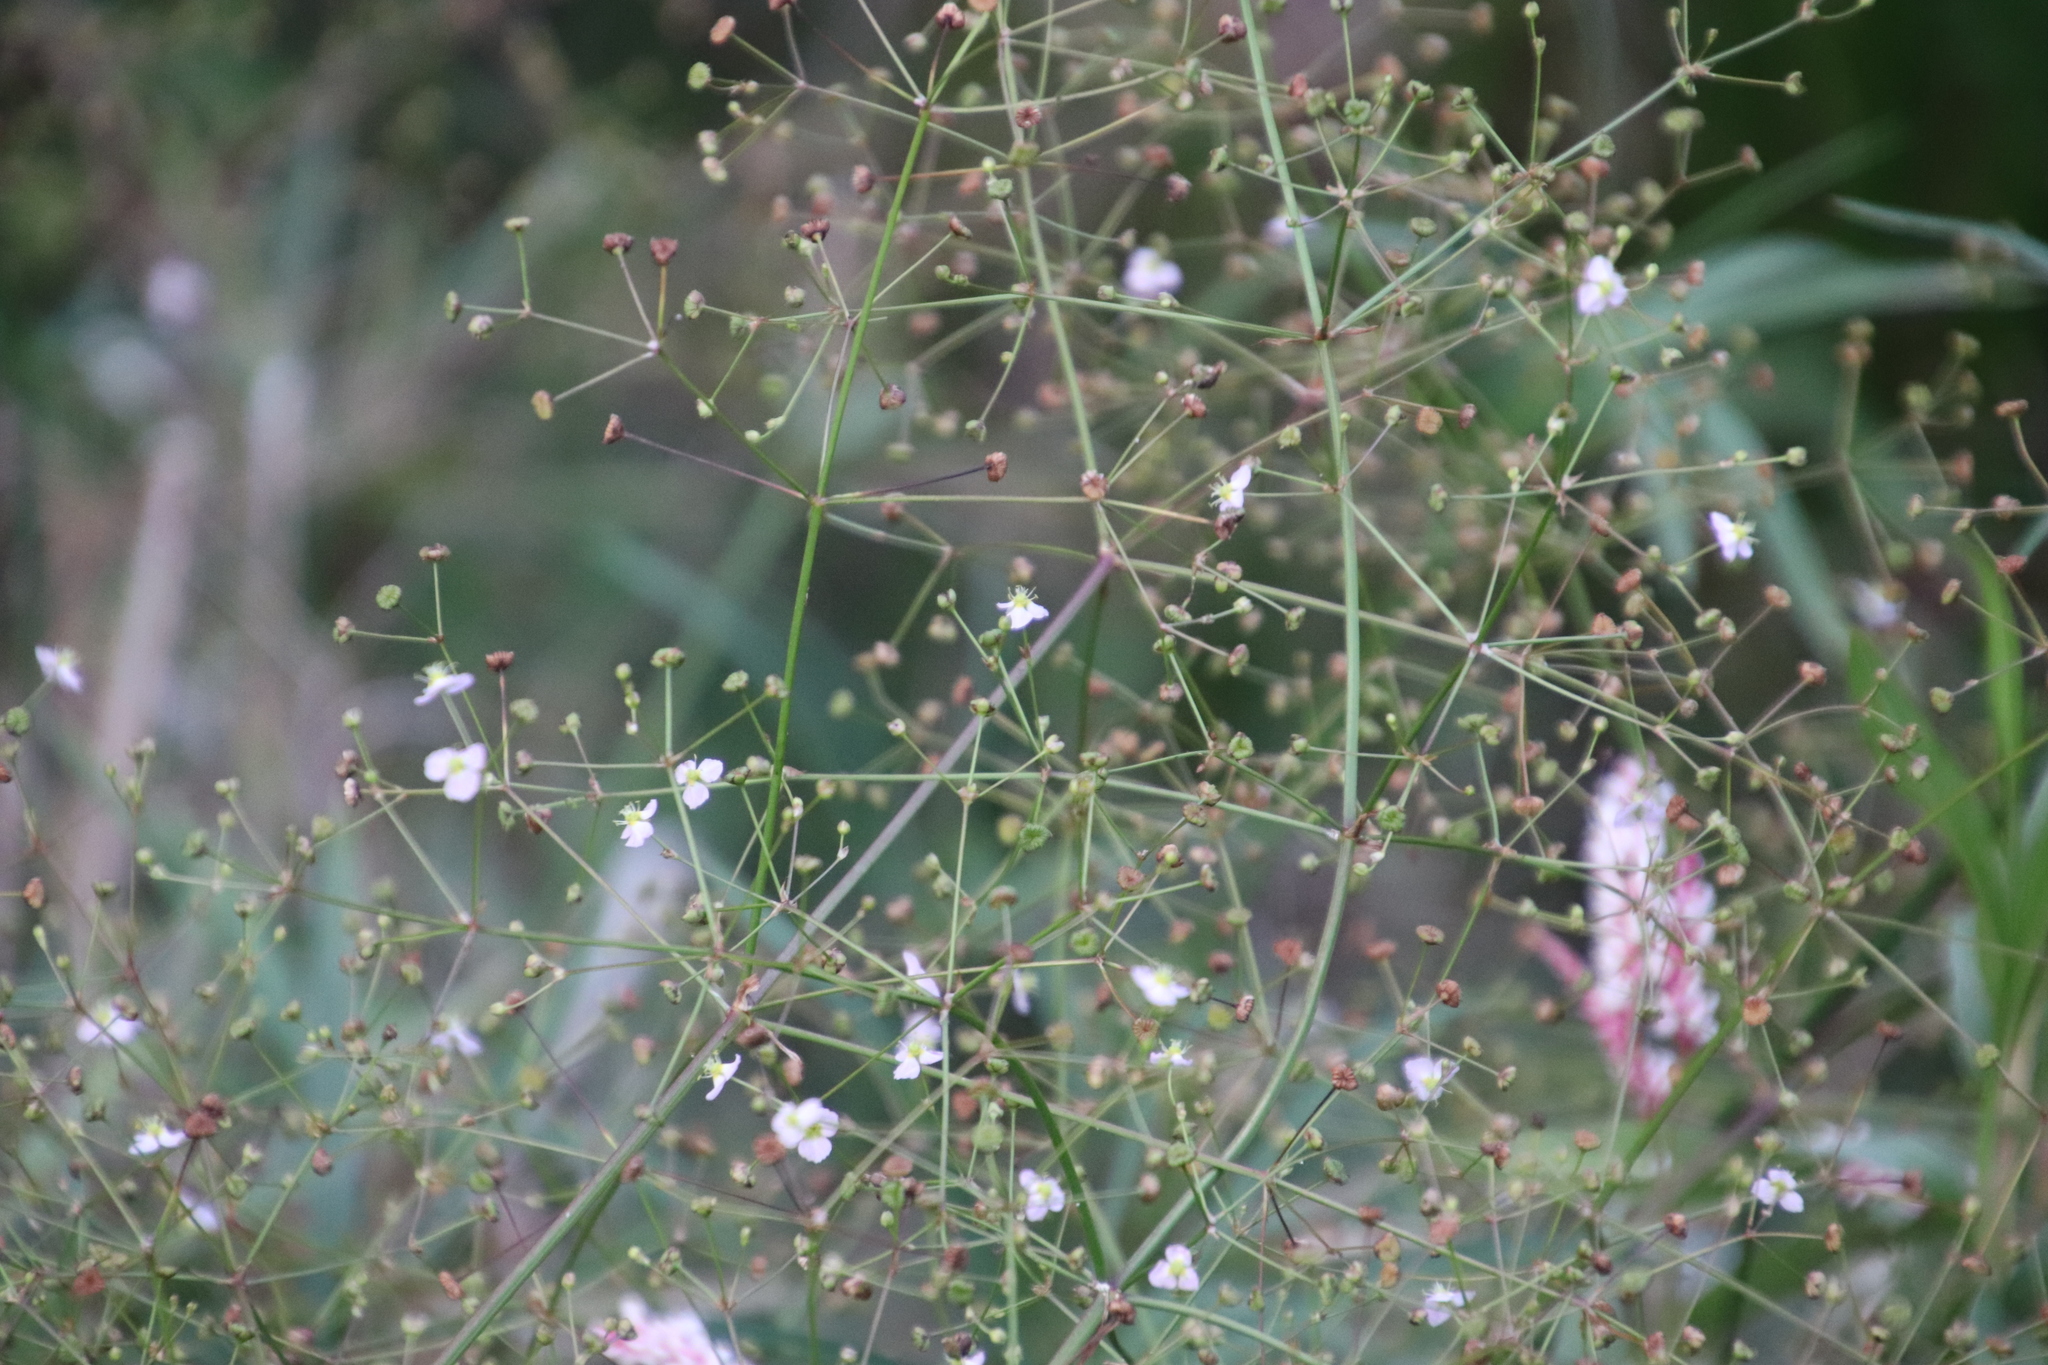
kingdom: Plantae
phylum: Tracheophyta
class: Liliopsida
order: Alismatales
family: Alismataceae
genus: Alisma
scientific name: Alisma plantago-aquatica
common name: Water-plantain
